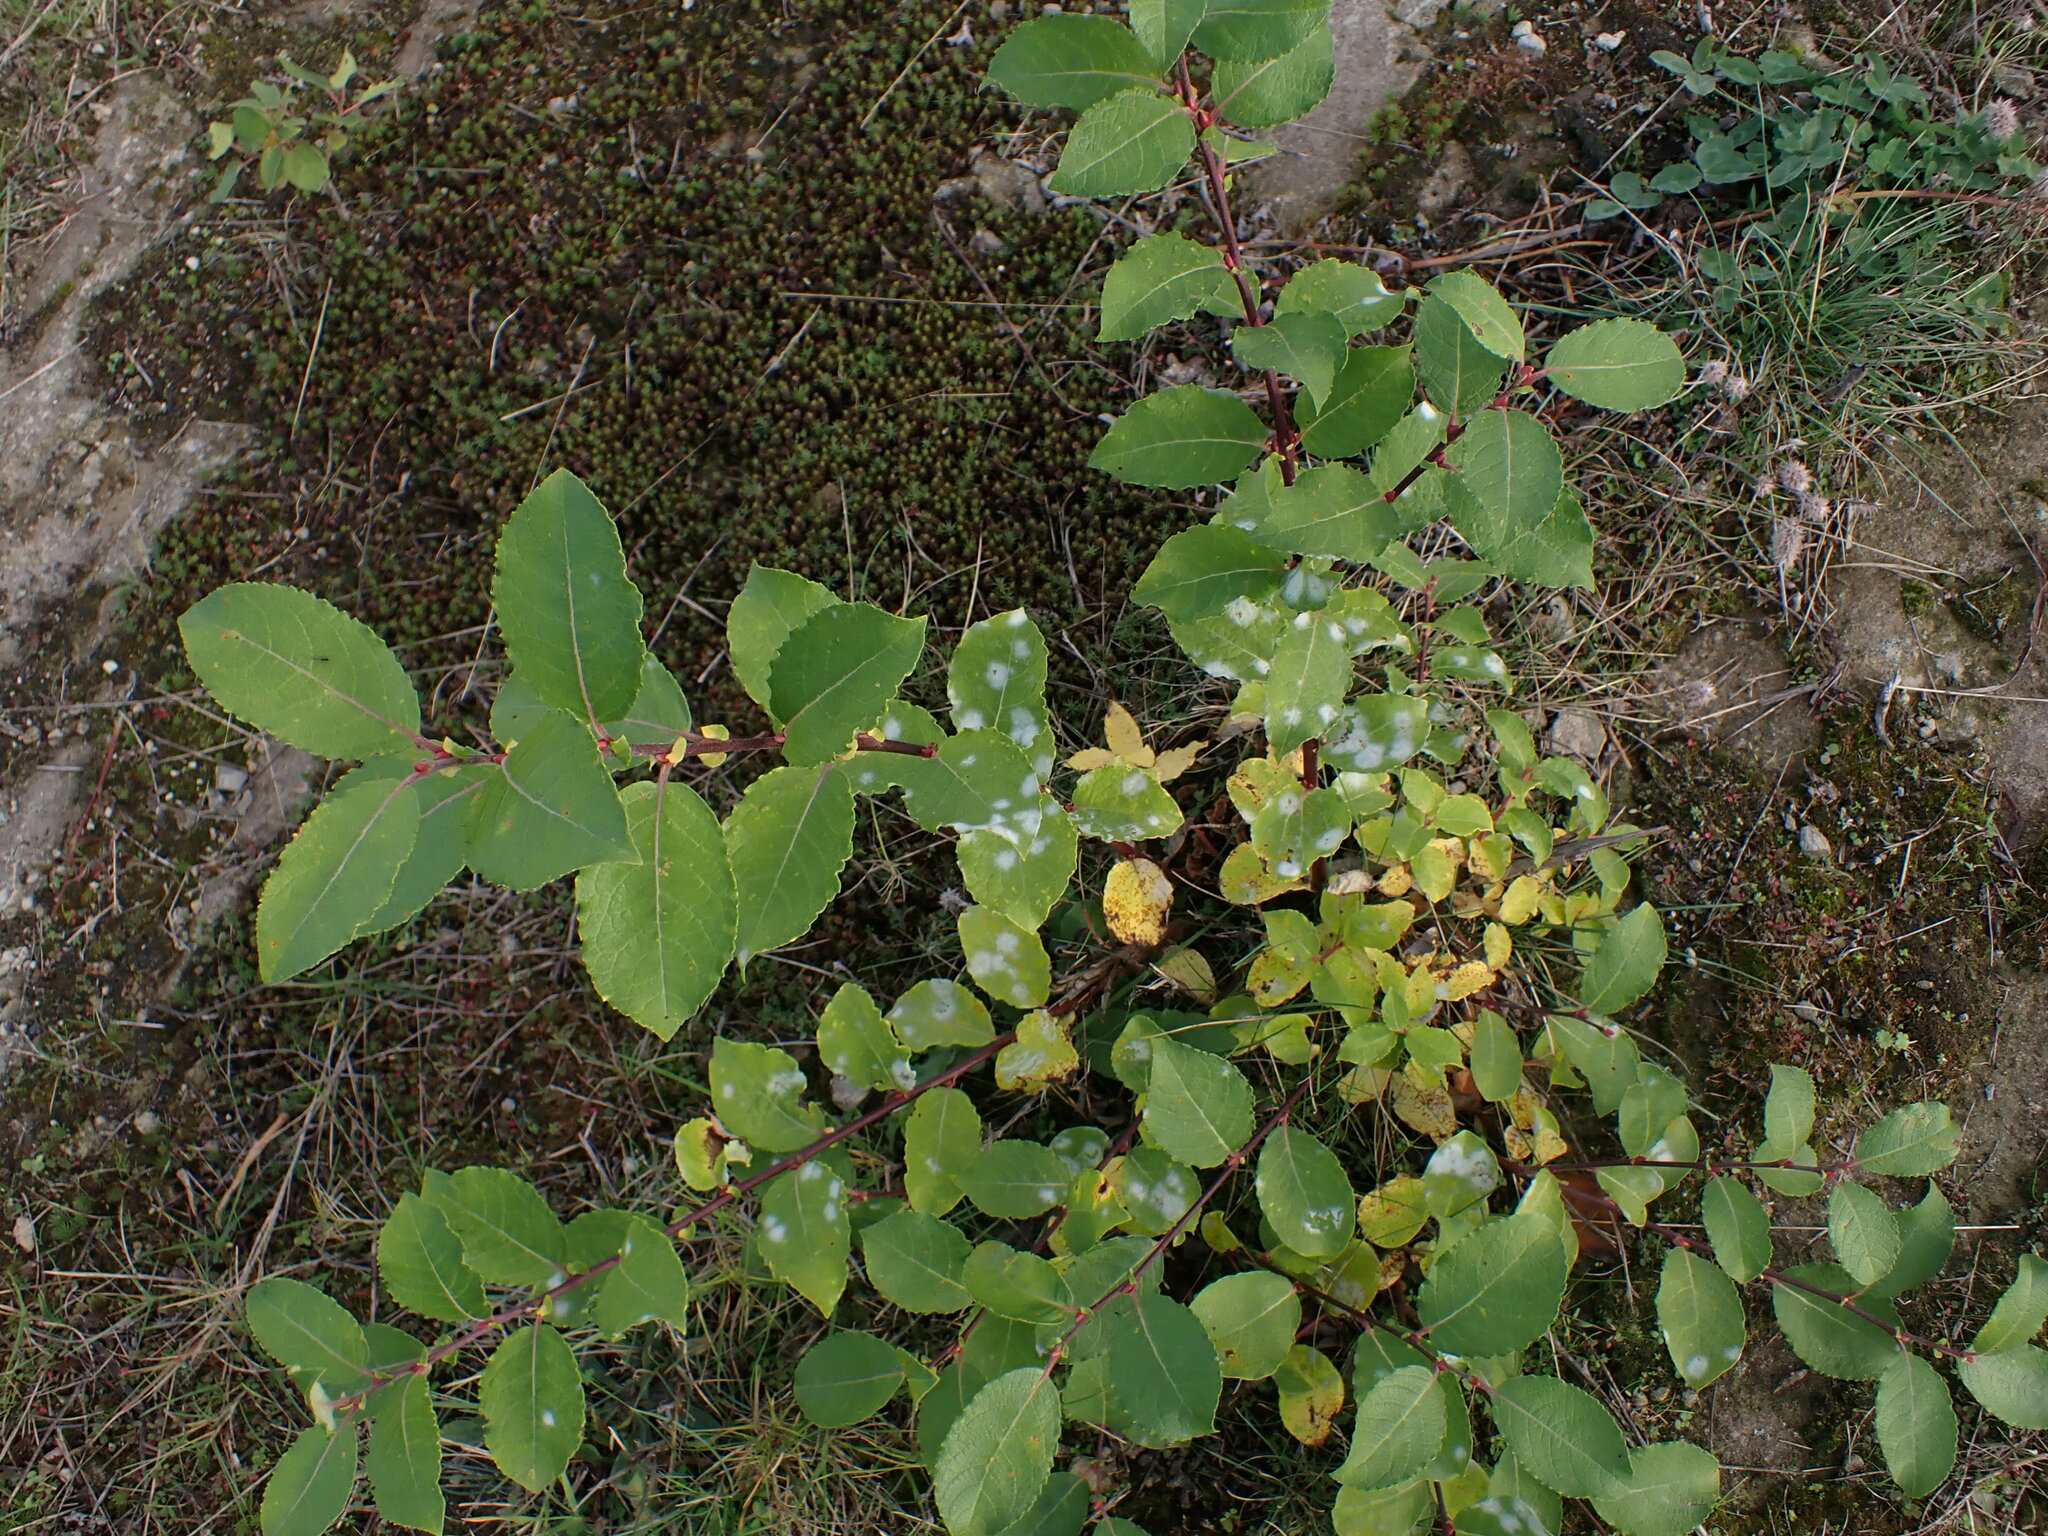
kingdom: Plantae
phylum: Tracheophyta
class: Magnoliopsida
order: Malpighiales
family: Salicaceae
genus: Salix
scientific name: Salix caprea
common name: Goat willow
